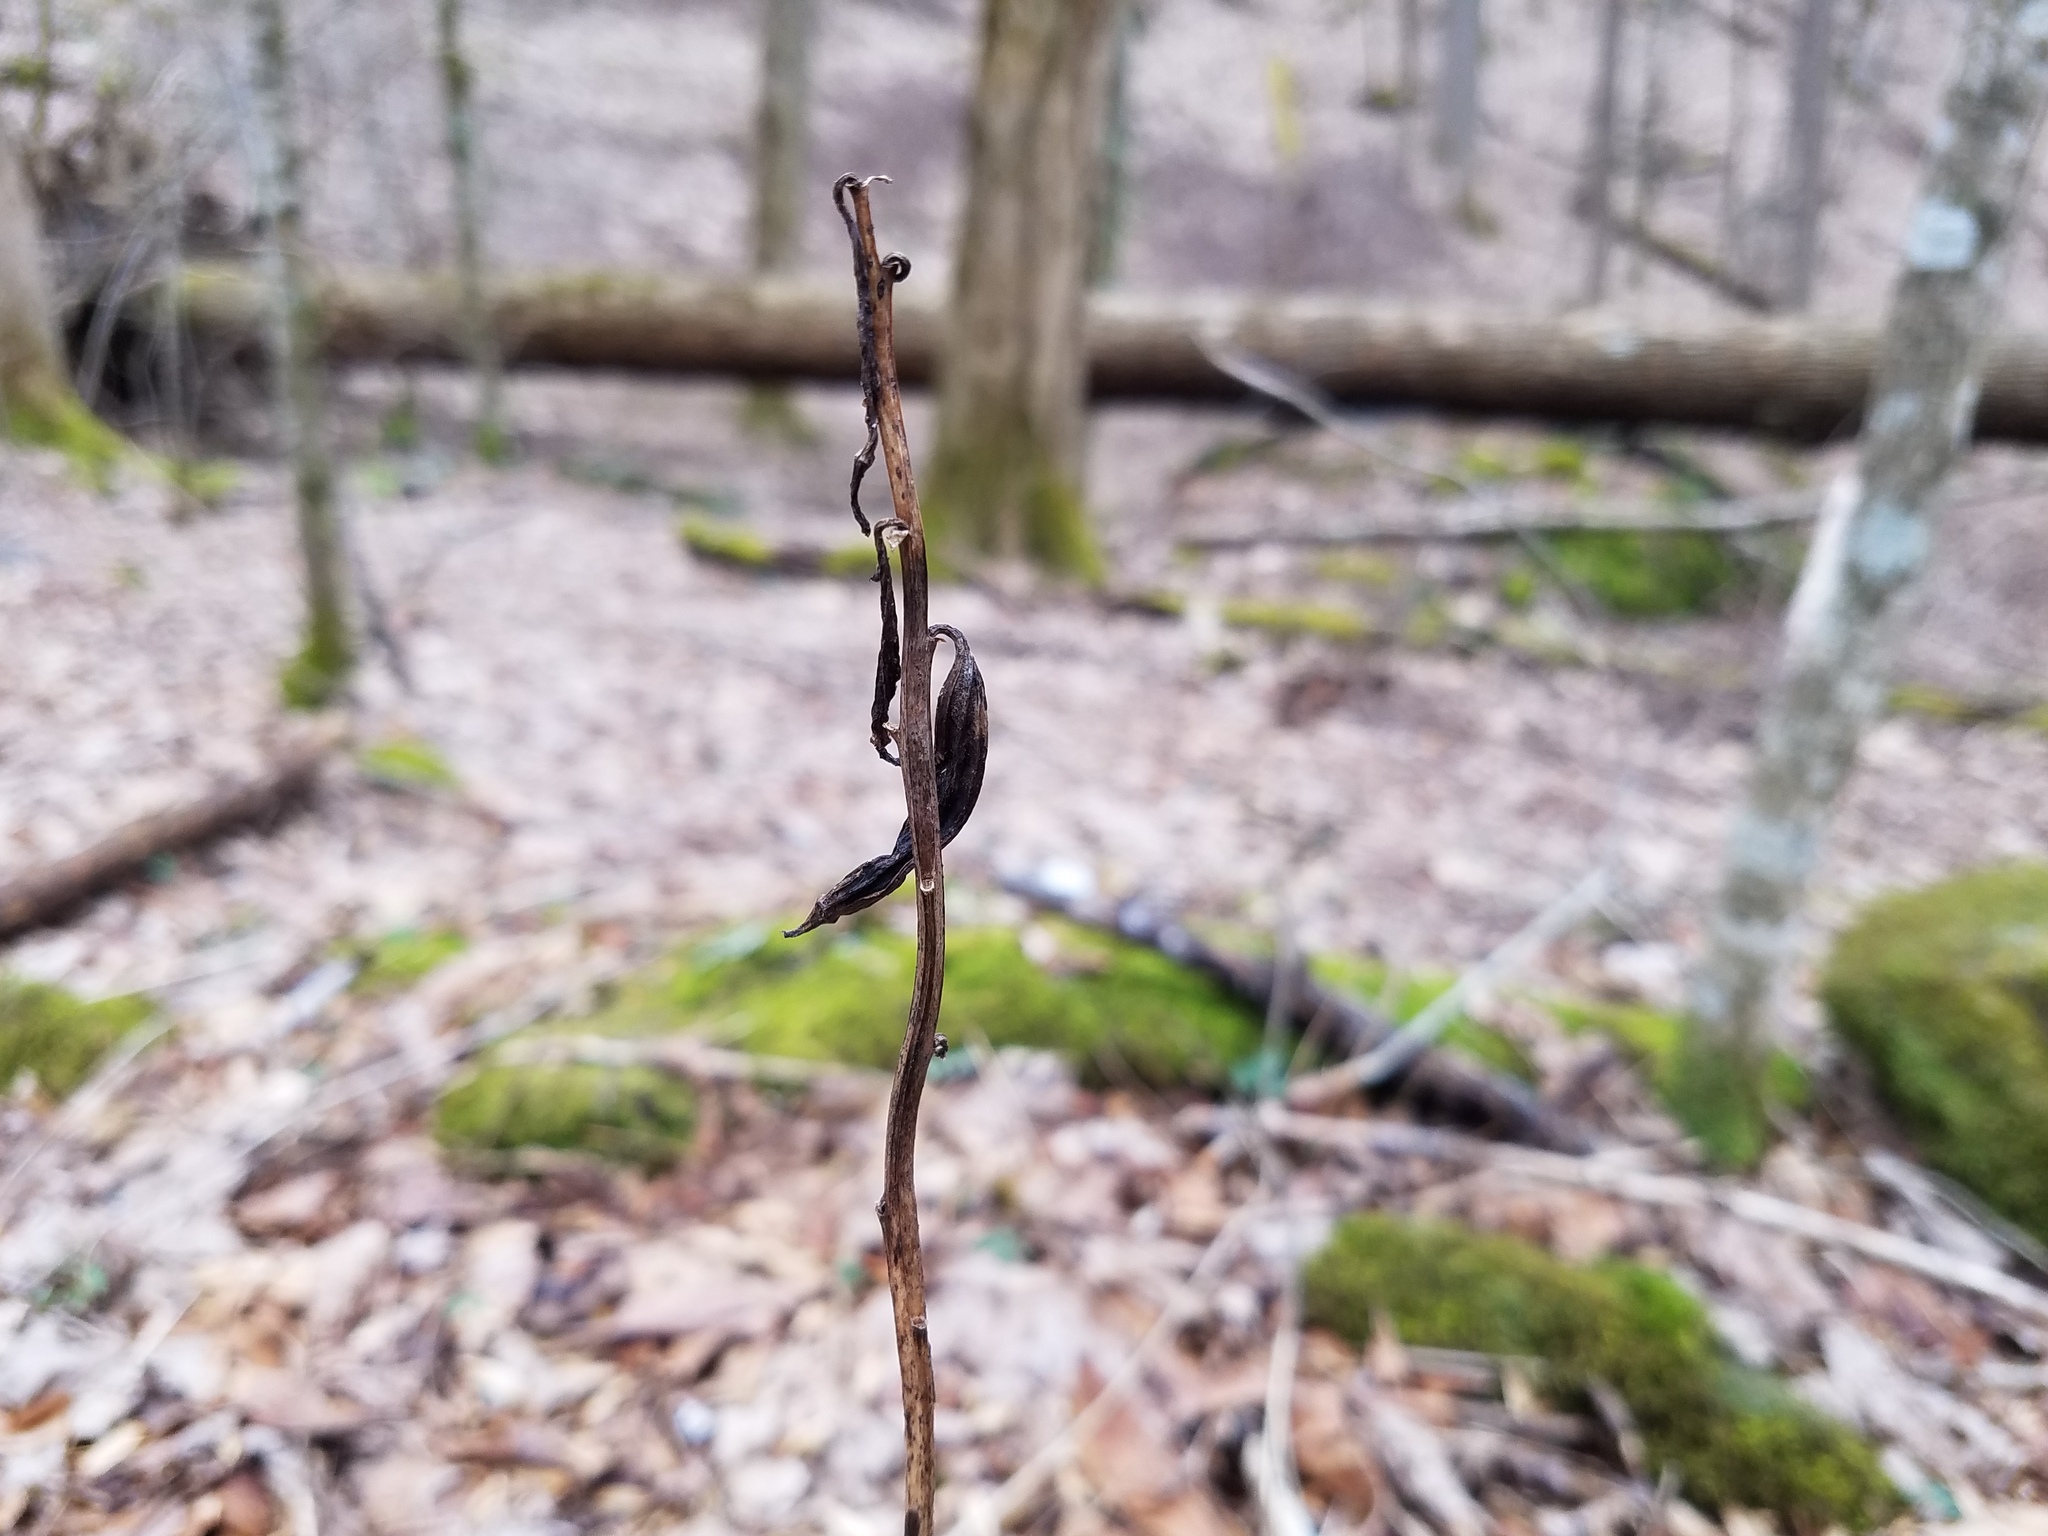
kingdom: Plantae
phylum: Tracheophyta
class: Liliopsida
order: Asparagales
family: Orchidaceae
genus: Aplectrum
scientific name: Aplectrum hyemale
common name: Adam-and-eve
